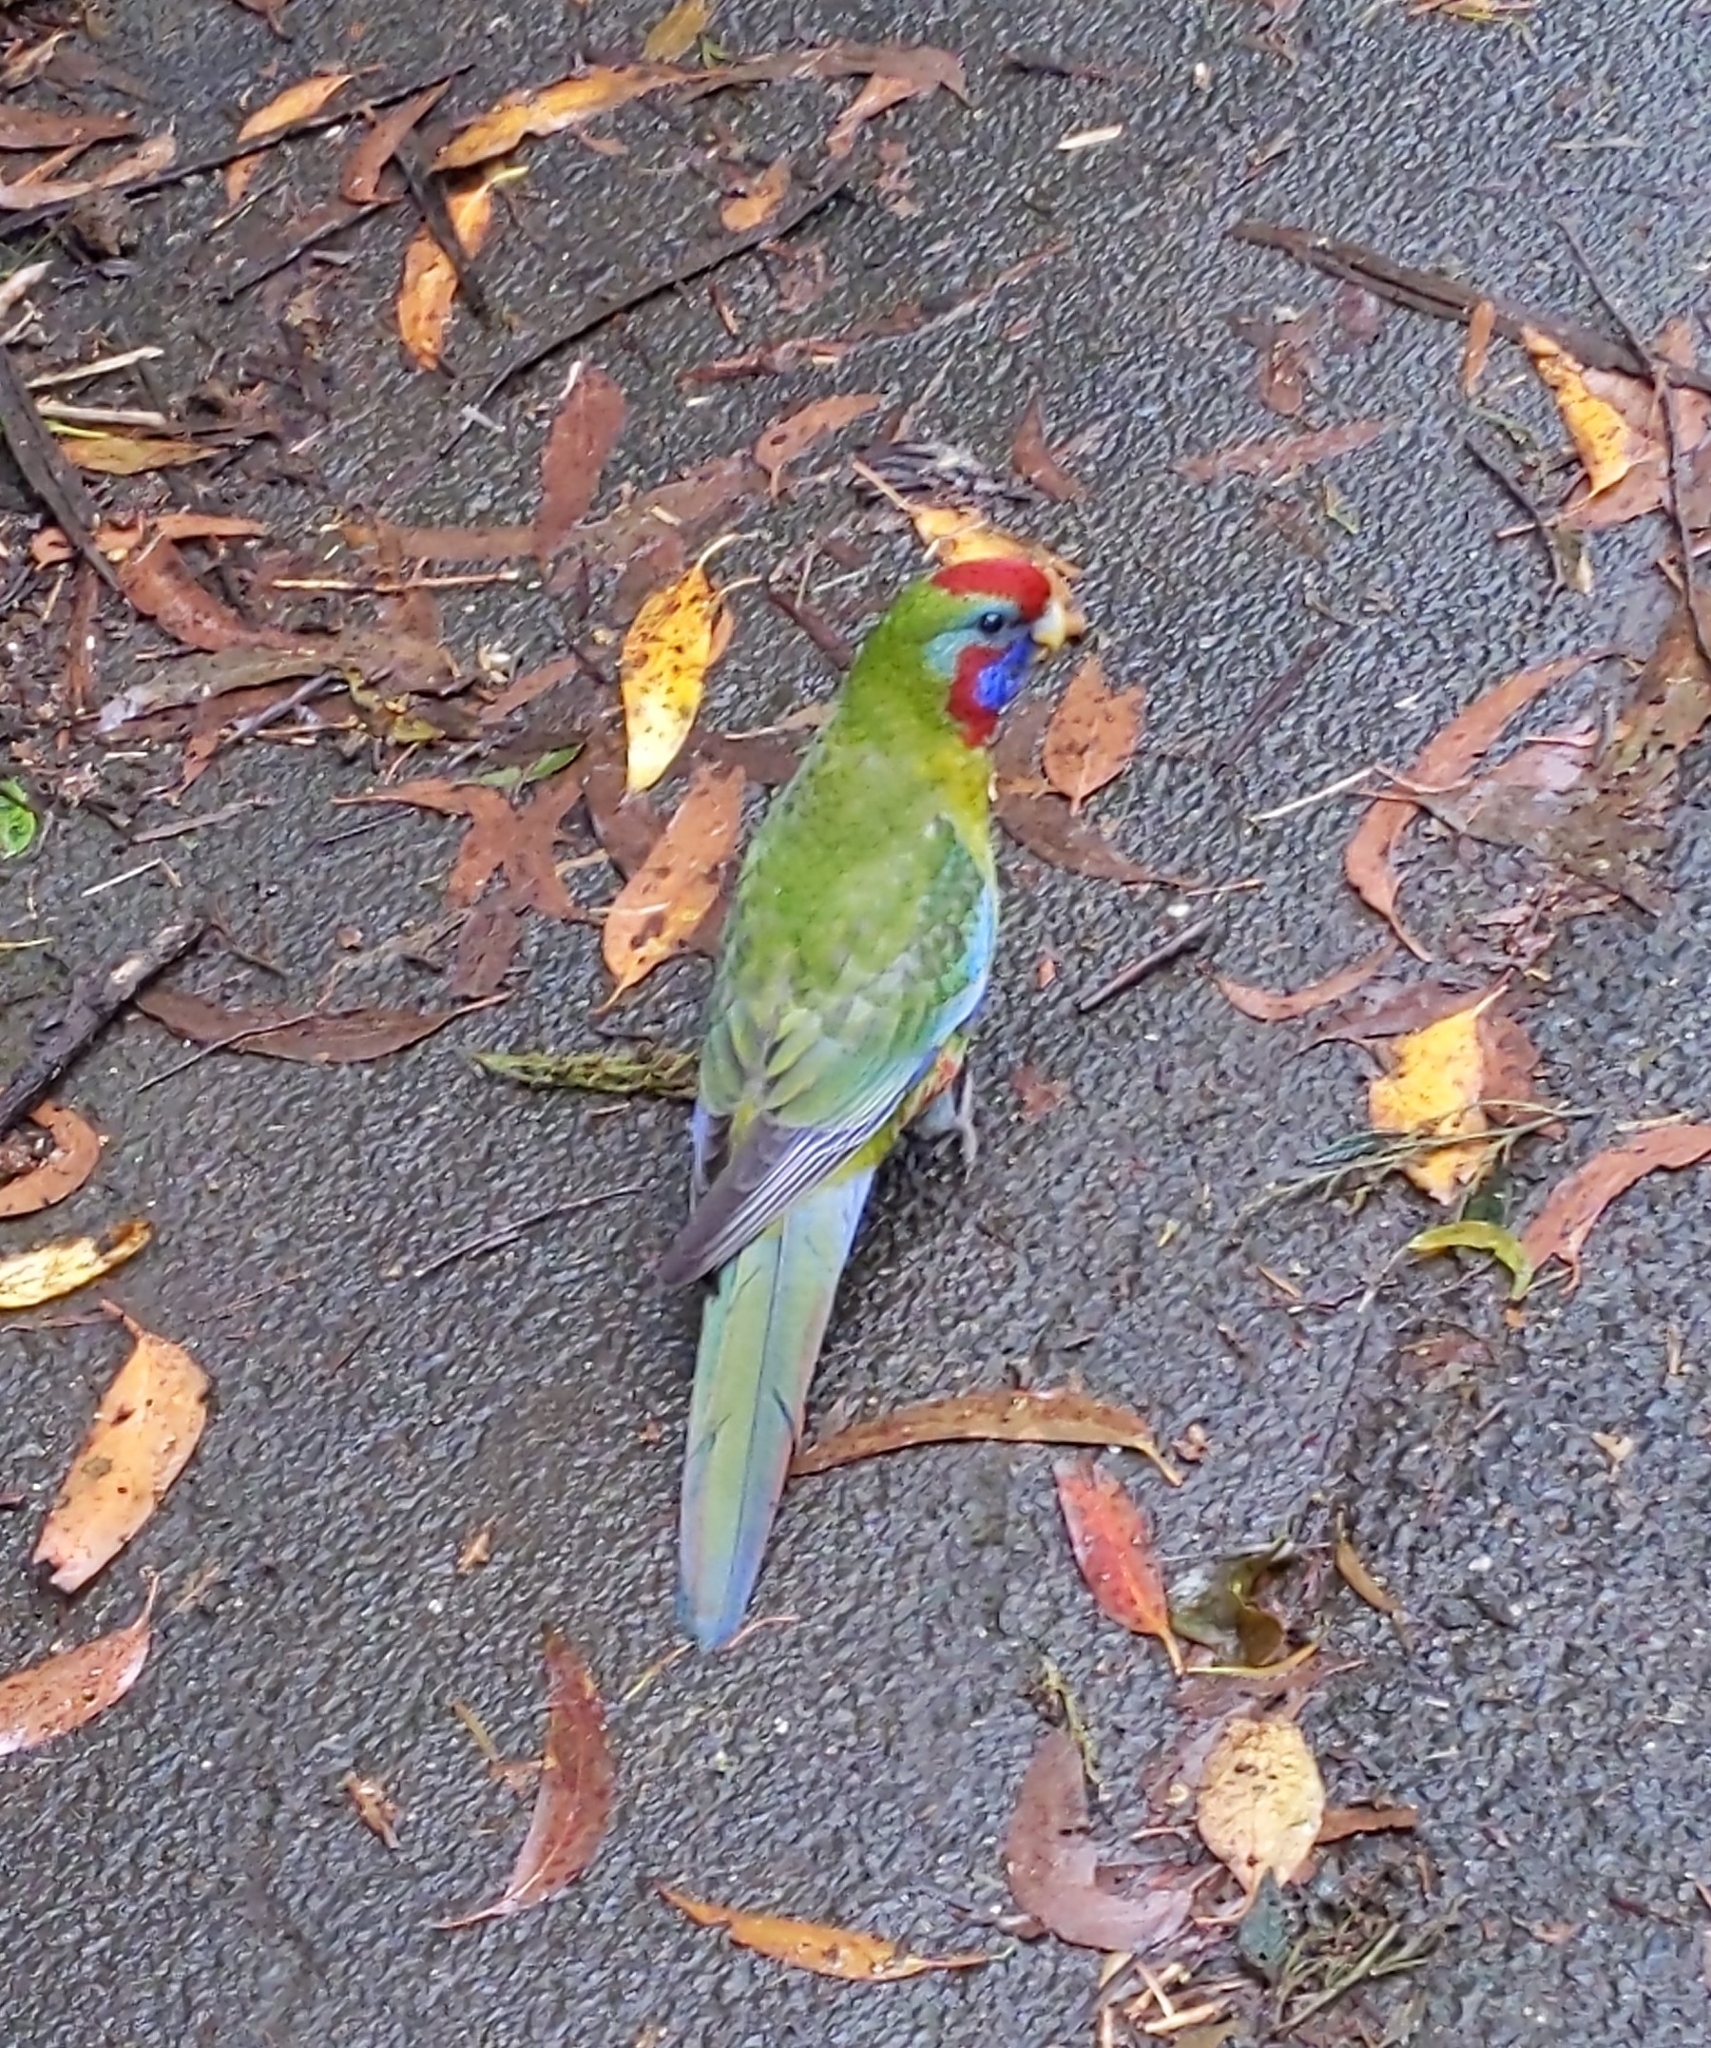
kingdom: Animalia
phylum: Chordata
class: Aves
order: Psittaciformes
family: Psittacidae
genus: Platycercus
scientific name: Platycercus elegans
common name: Crimson rosella
